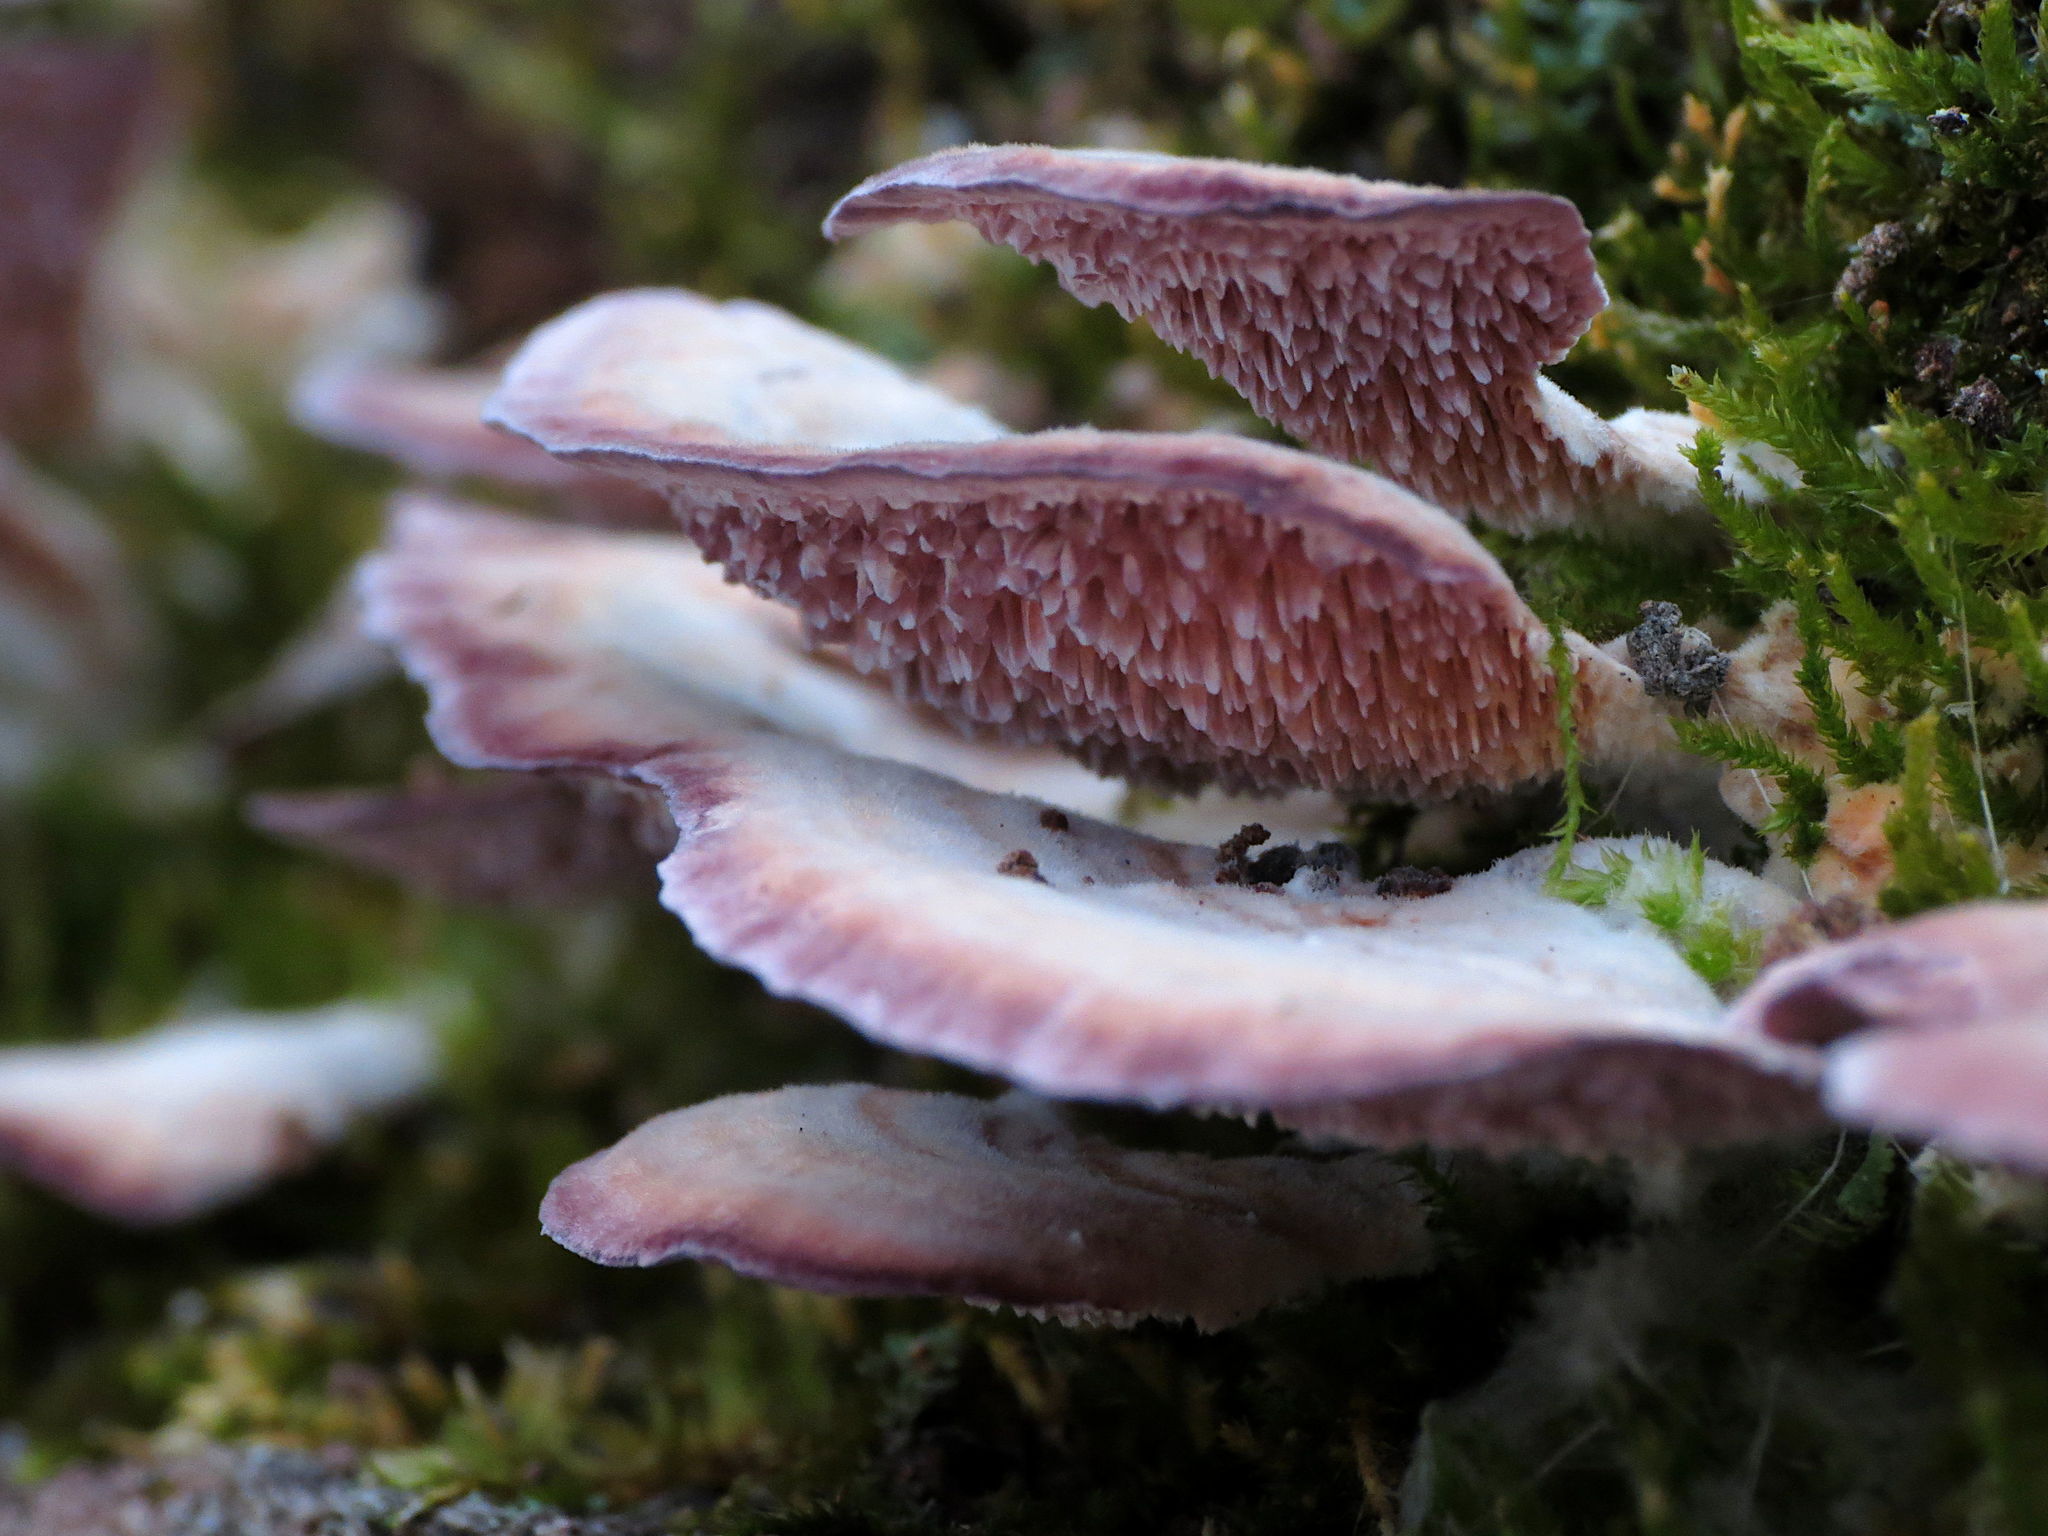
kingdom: Fungi
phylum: Basidiomycota
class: Agaricomycetes
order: Hymenochaetales
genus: Trichaptum
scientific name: Trichaptum biforme
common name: Violet-toothed polypore
